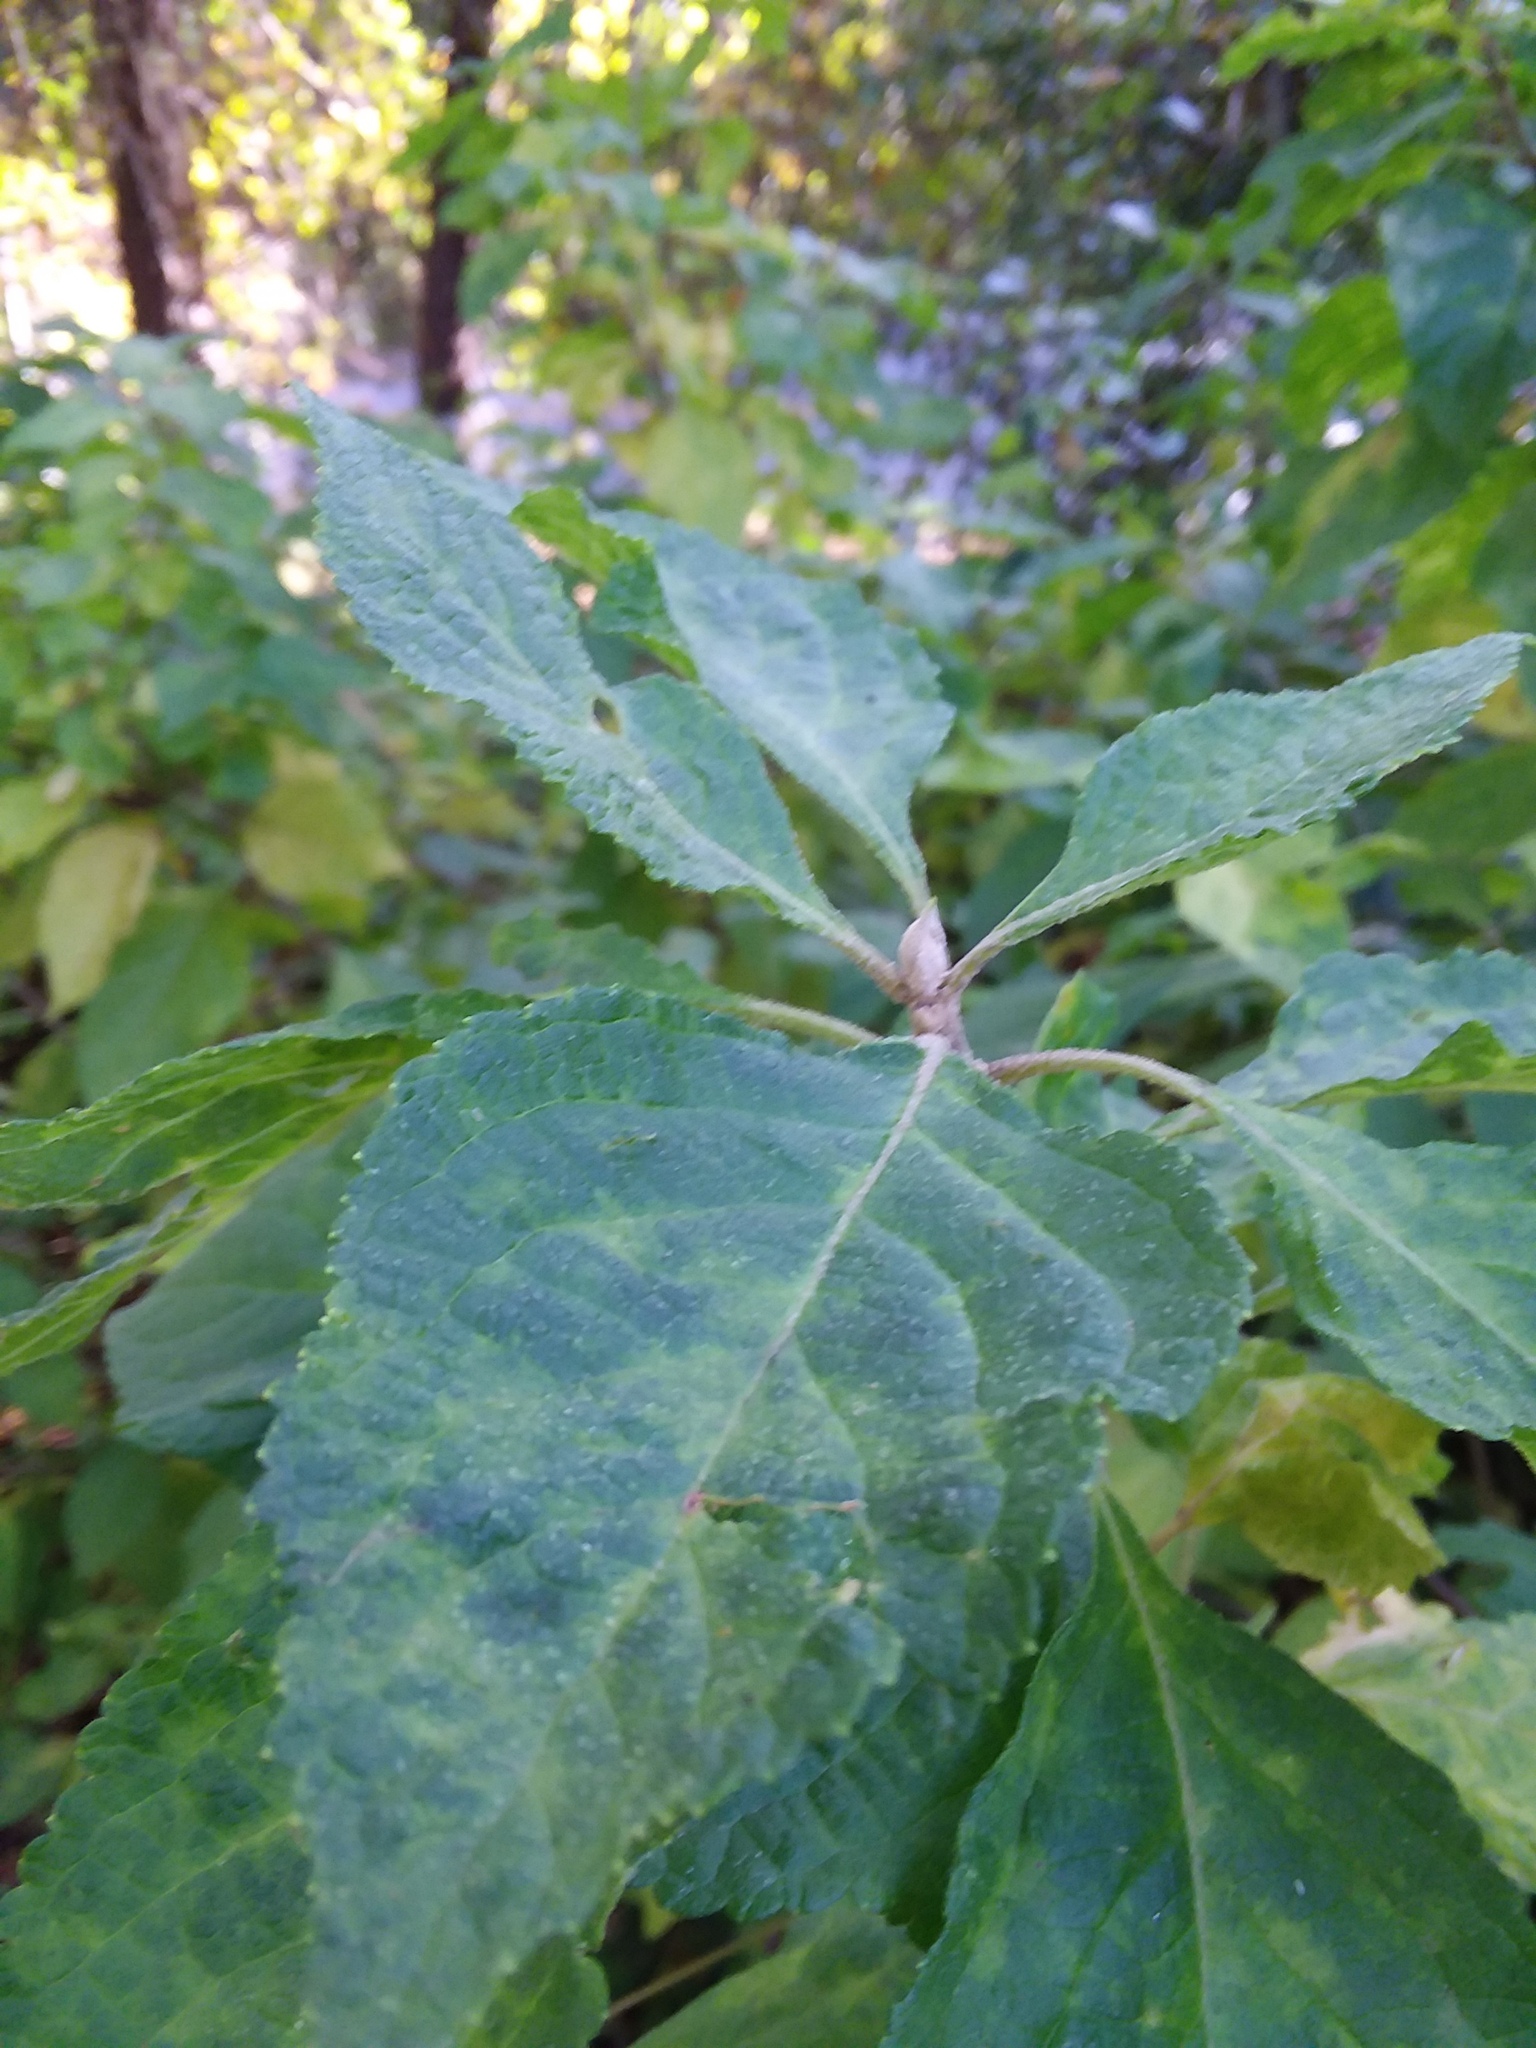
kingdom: Plantae
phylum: Tracheophyta
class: Magnoliopsida
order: Lamiales
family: Lamiaceae
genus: Callicarpa
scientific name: Callicarpa americana
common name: American beautyberry
